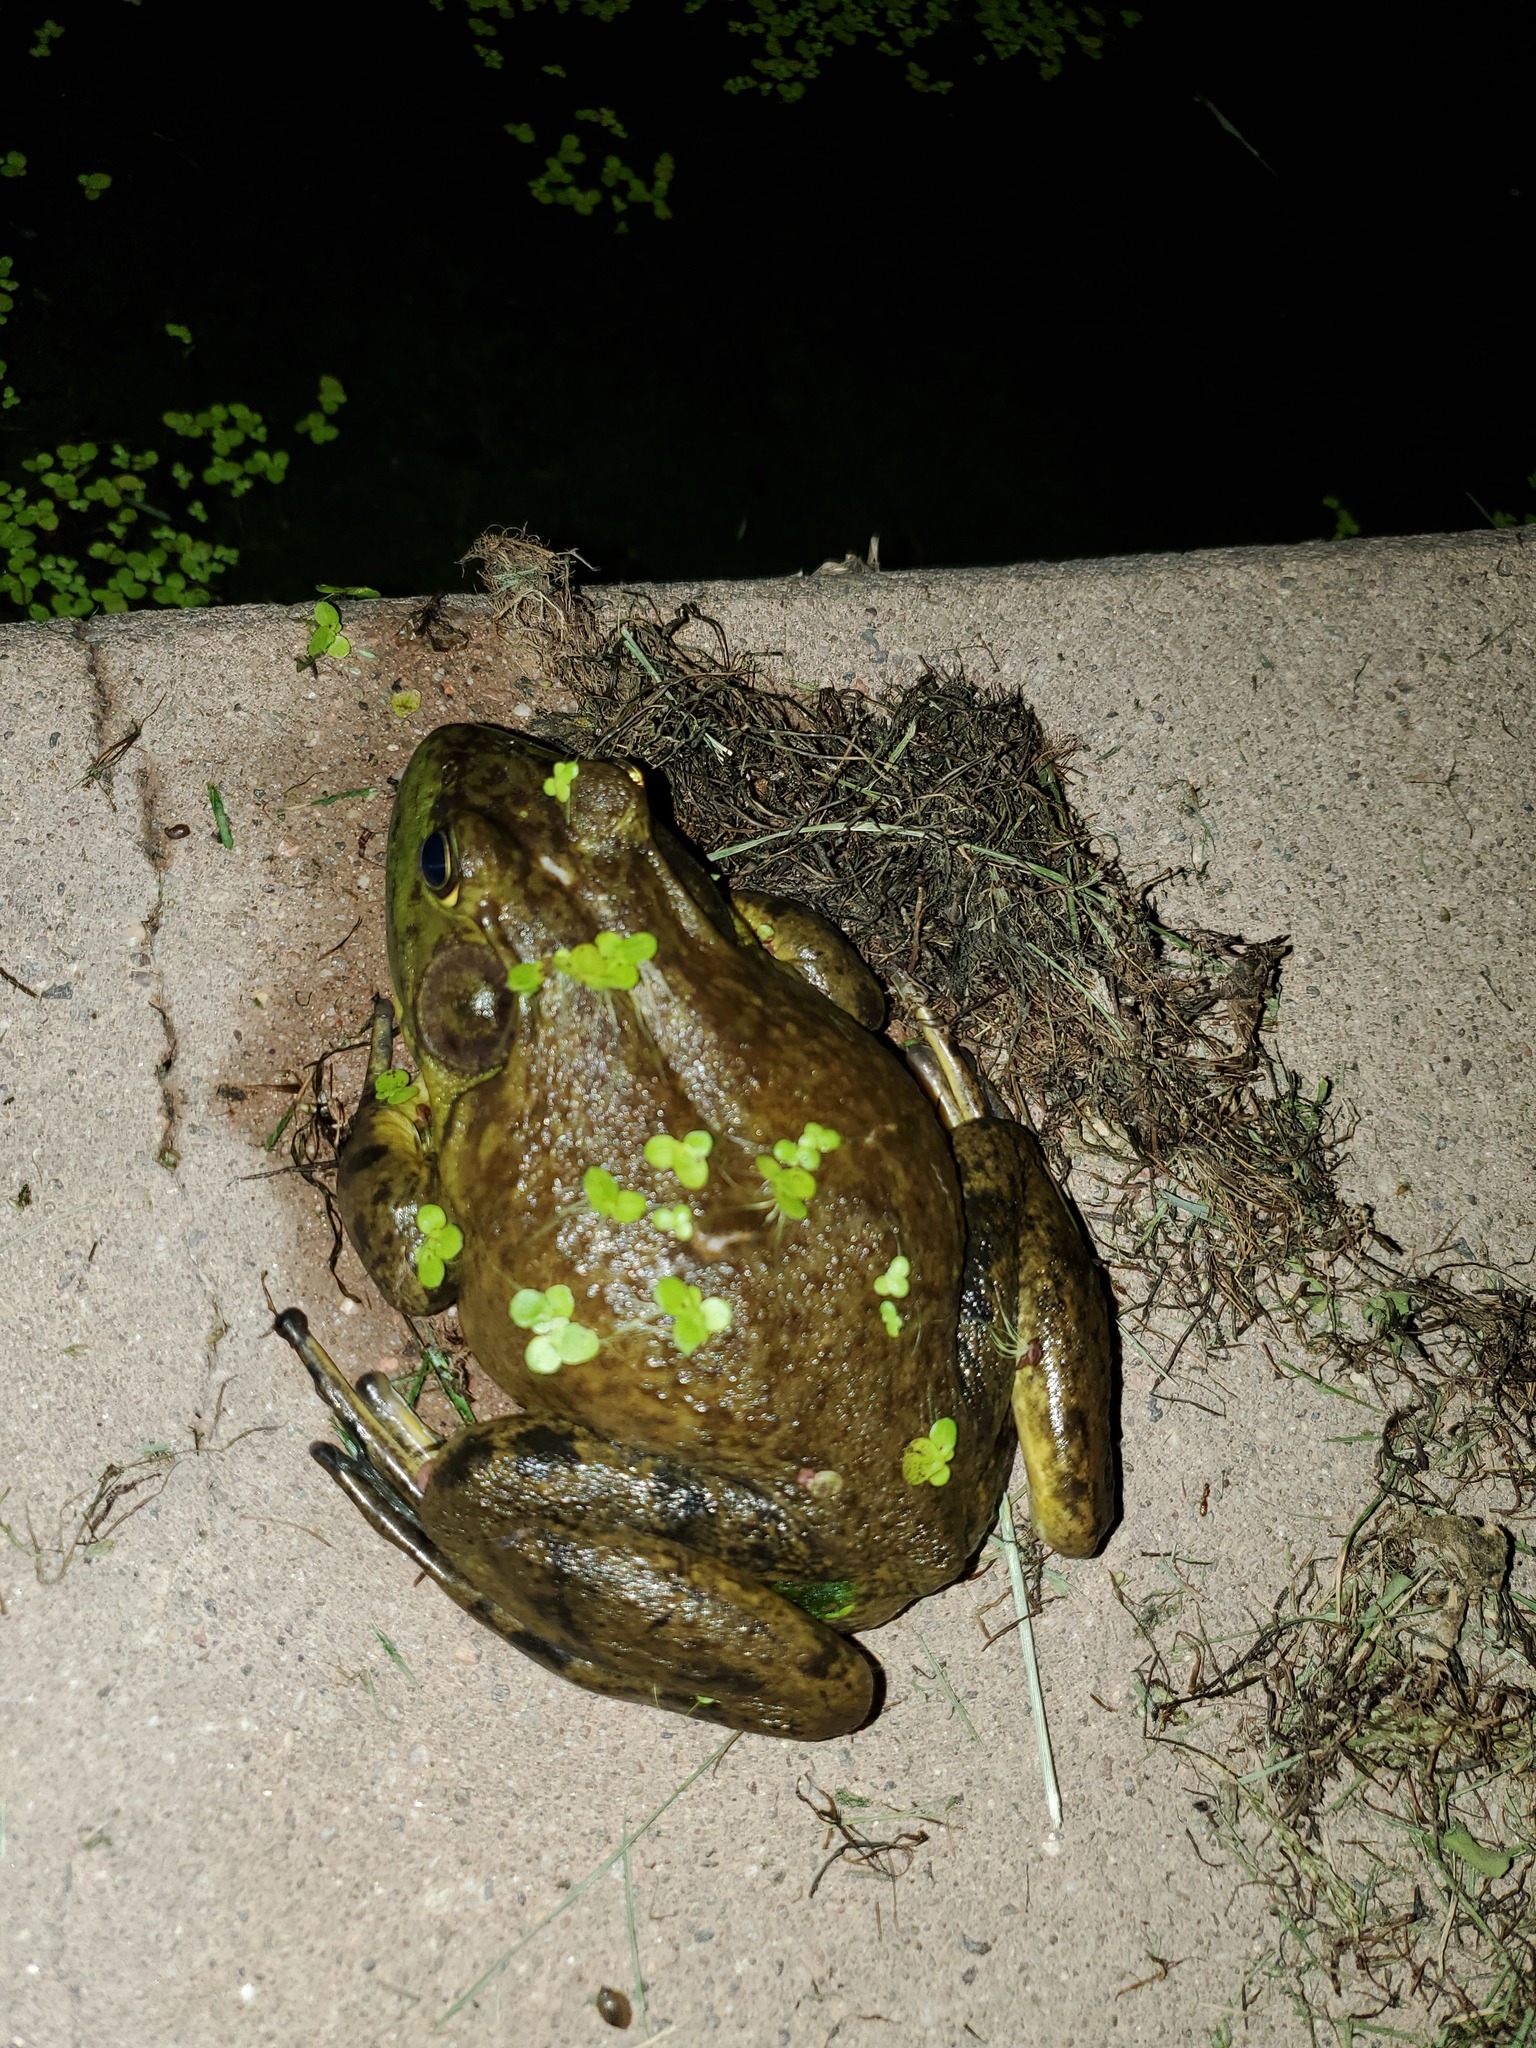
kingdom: Animalia
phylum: Chordata
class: Amphibia
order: Anura
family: Ranidae
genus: Lithobates
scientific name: Lithobates catesbeianus
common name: American bullfrog
